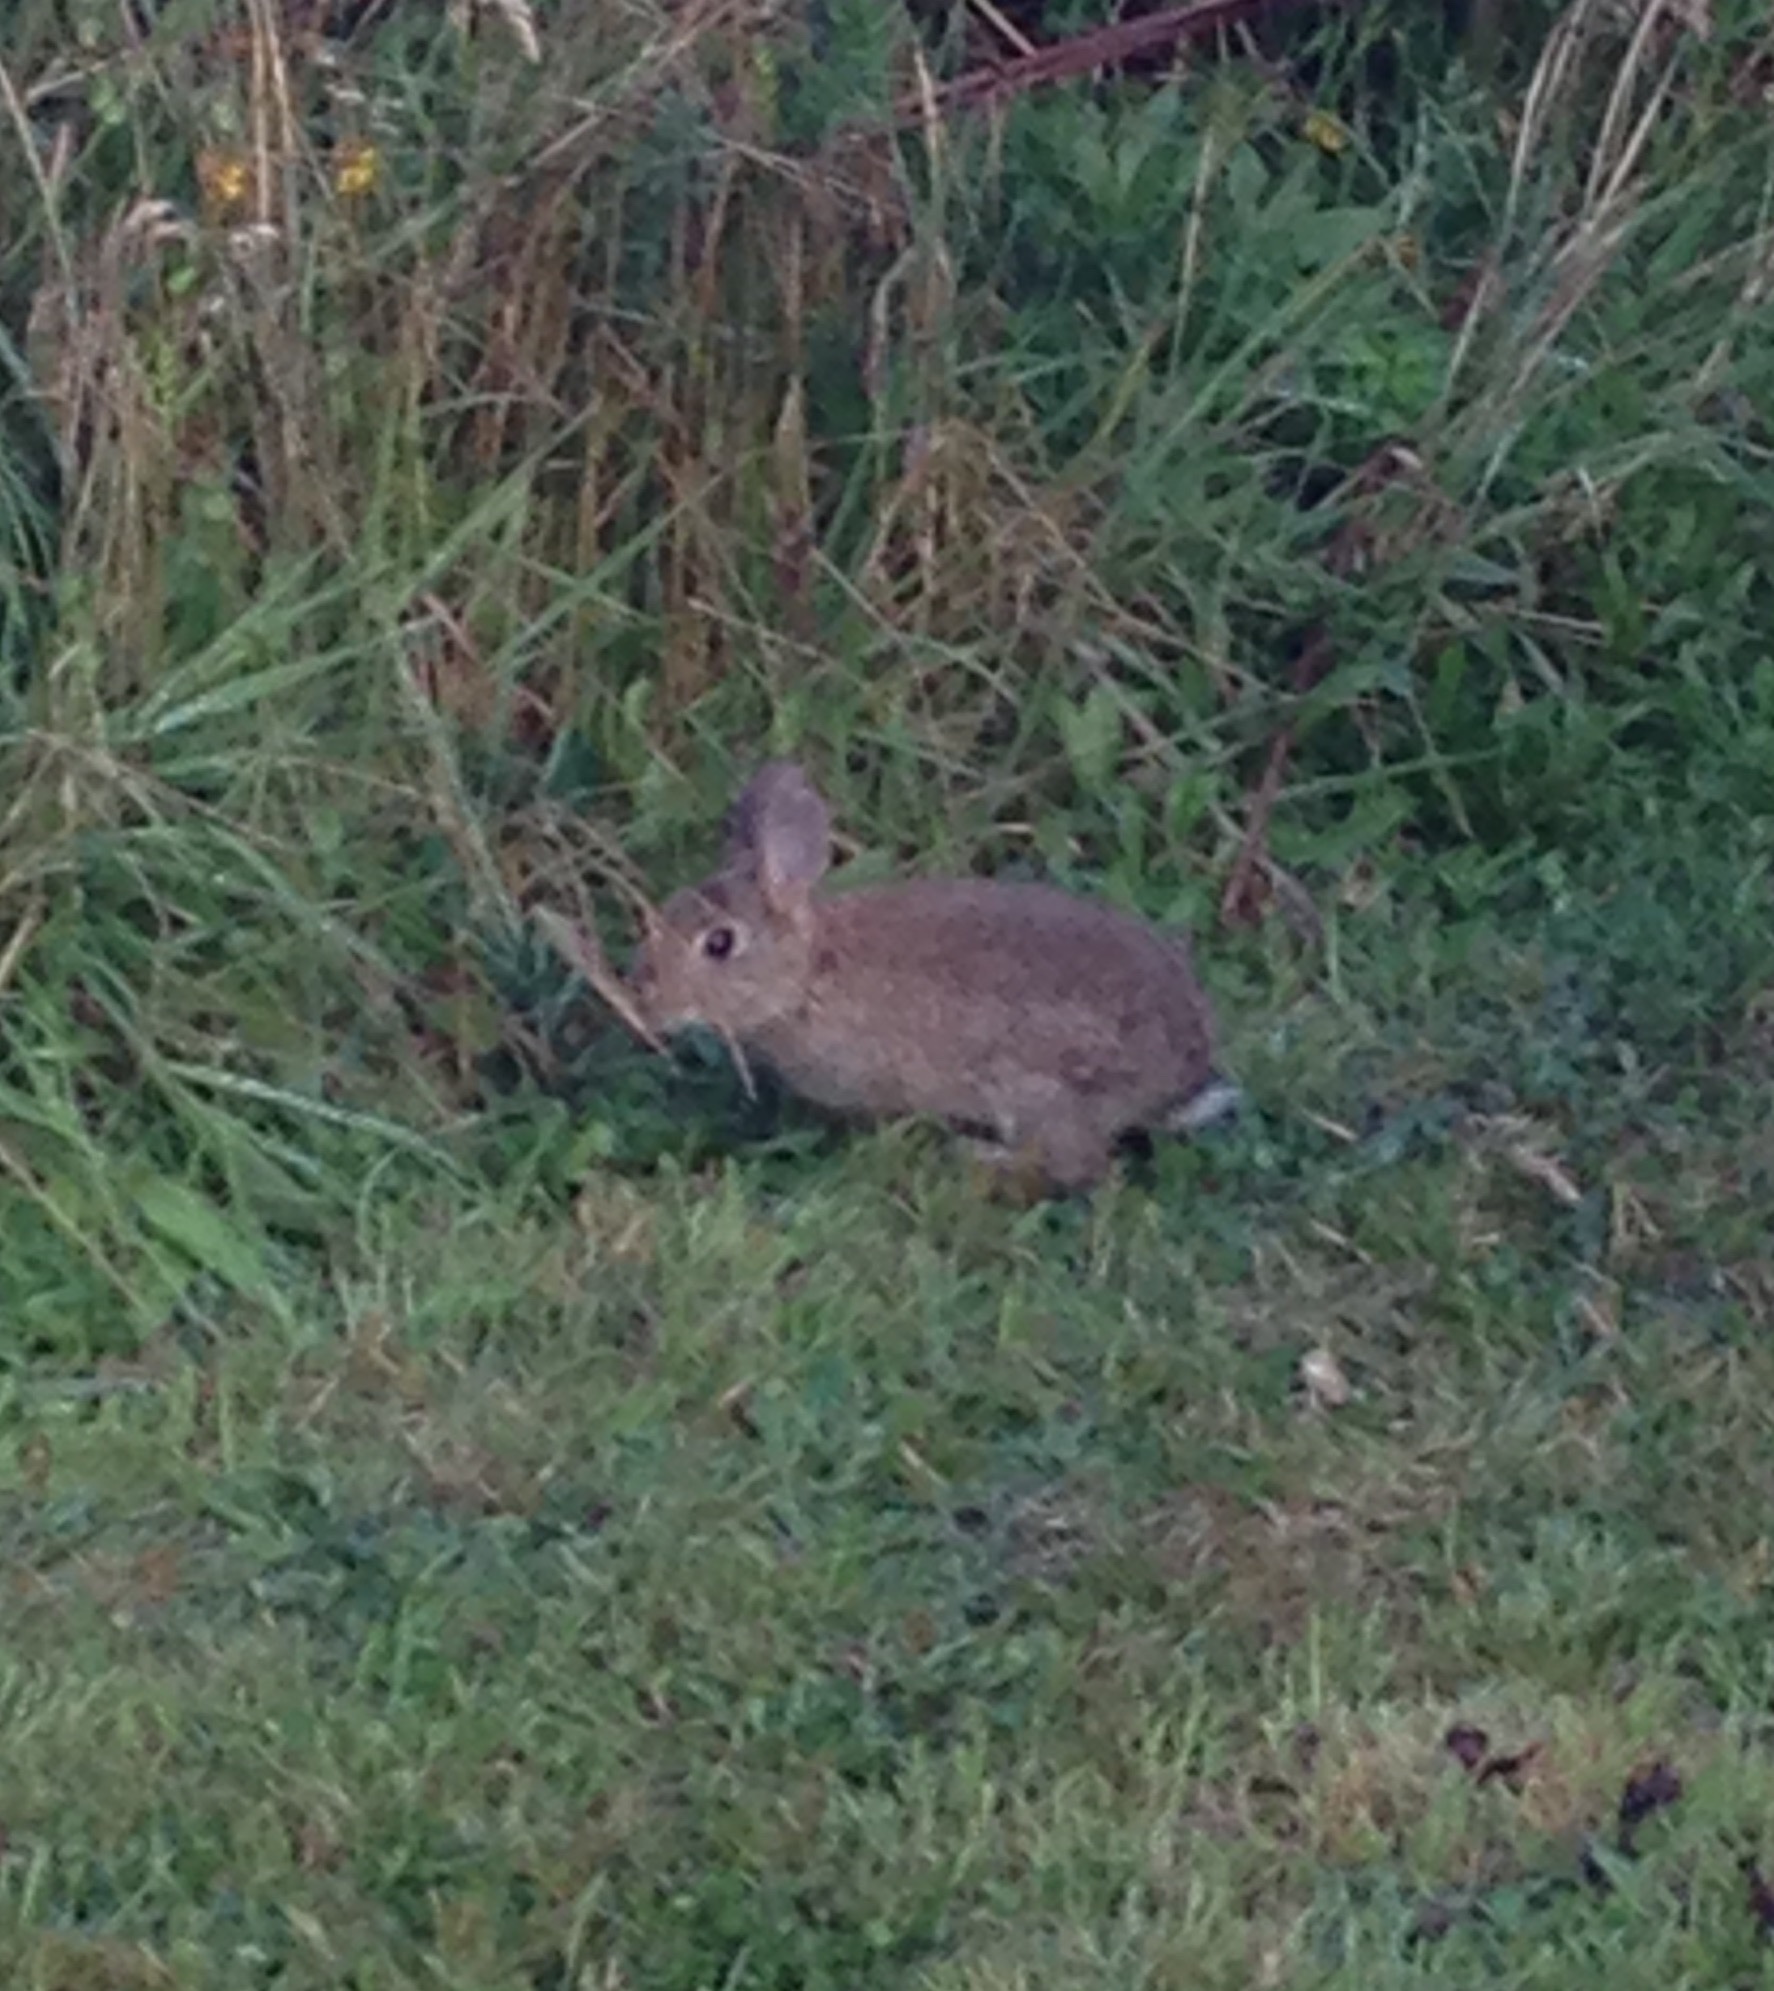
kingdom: Animalia
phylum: Chordata
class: Mammalia
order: Lagomorpha
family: Leporidae
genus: Oryctolagus
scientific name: Oryctolagus cuniculus
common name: European rabbit
